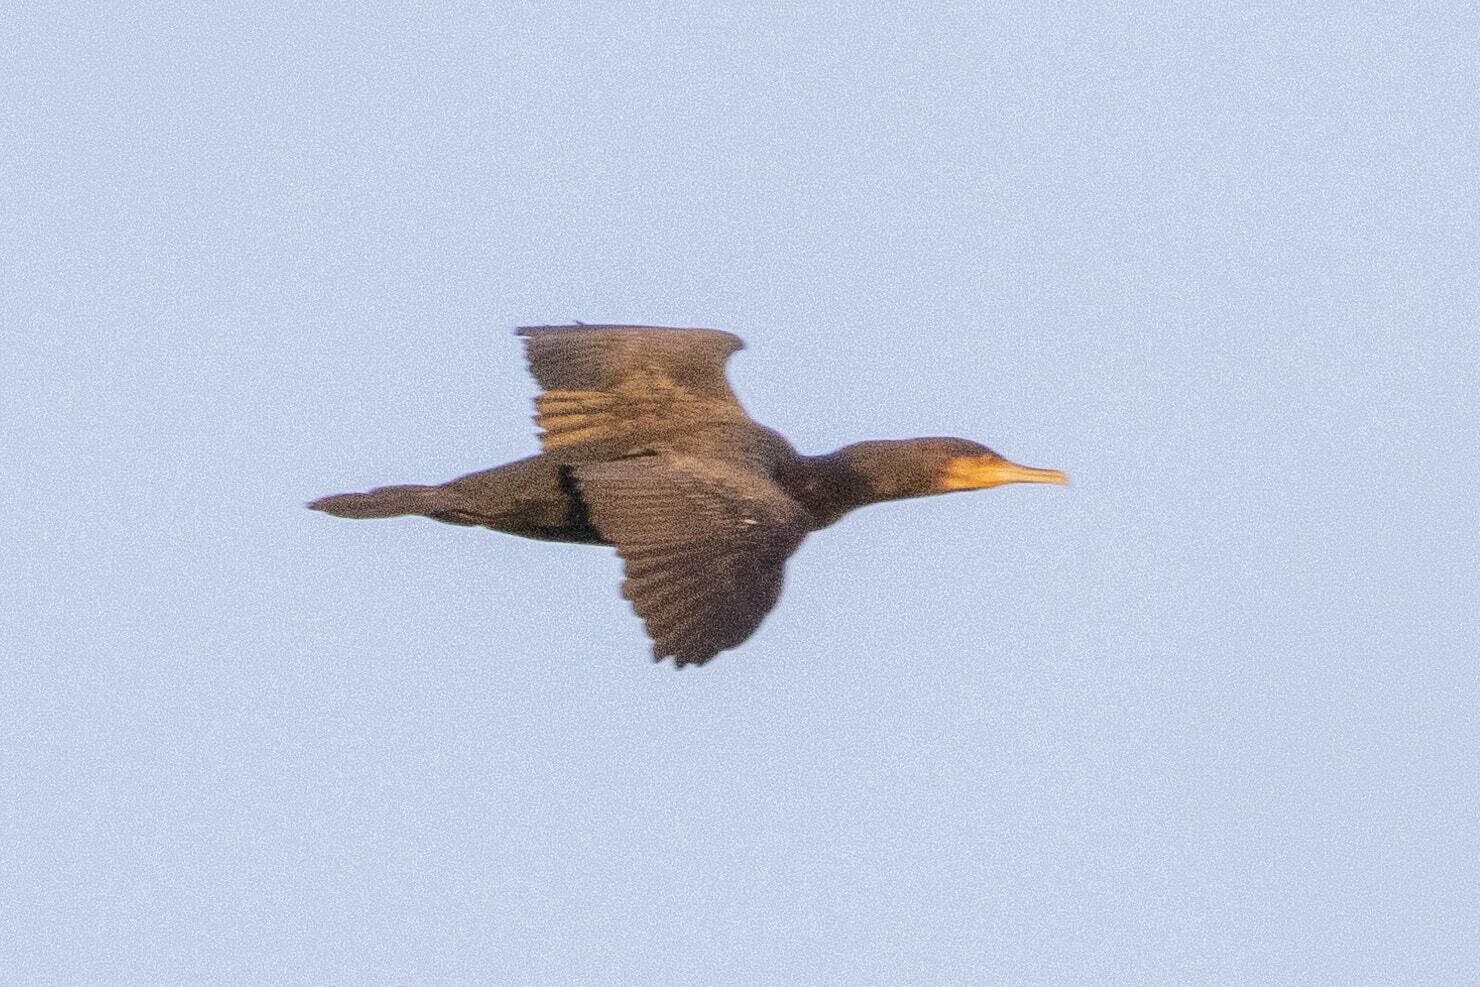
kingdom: Animalia
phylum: Chordata
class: Aves
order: Suliformes
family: Phalacrocoracidae
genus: Phalacrocorax
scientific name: Phalacrocorax carbo
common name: Great cormorant
